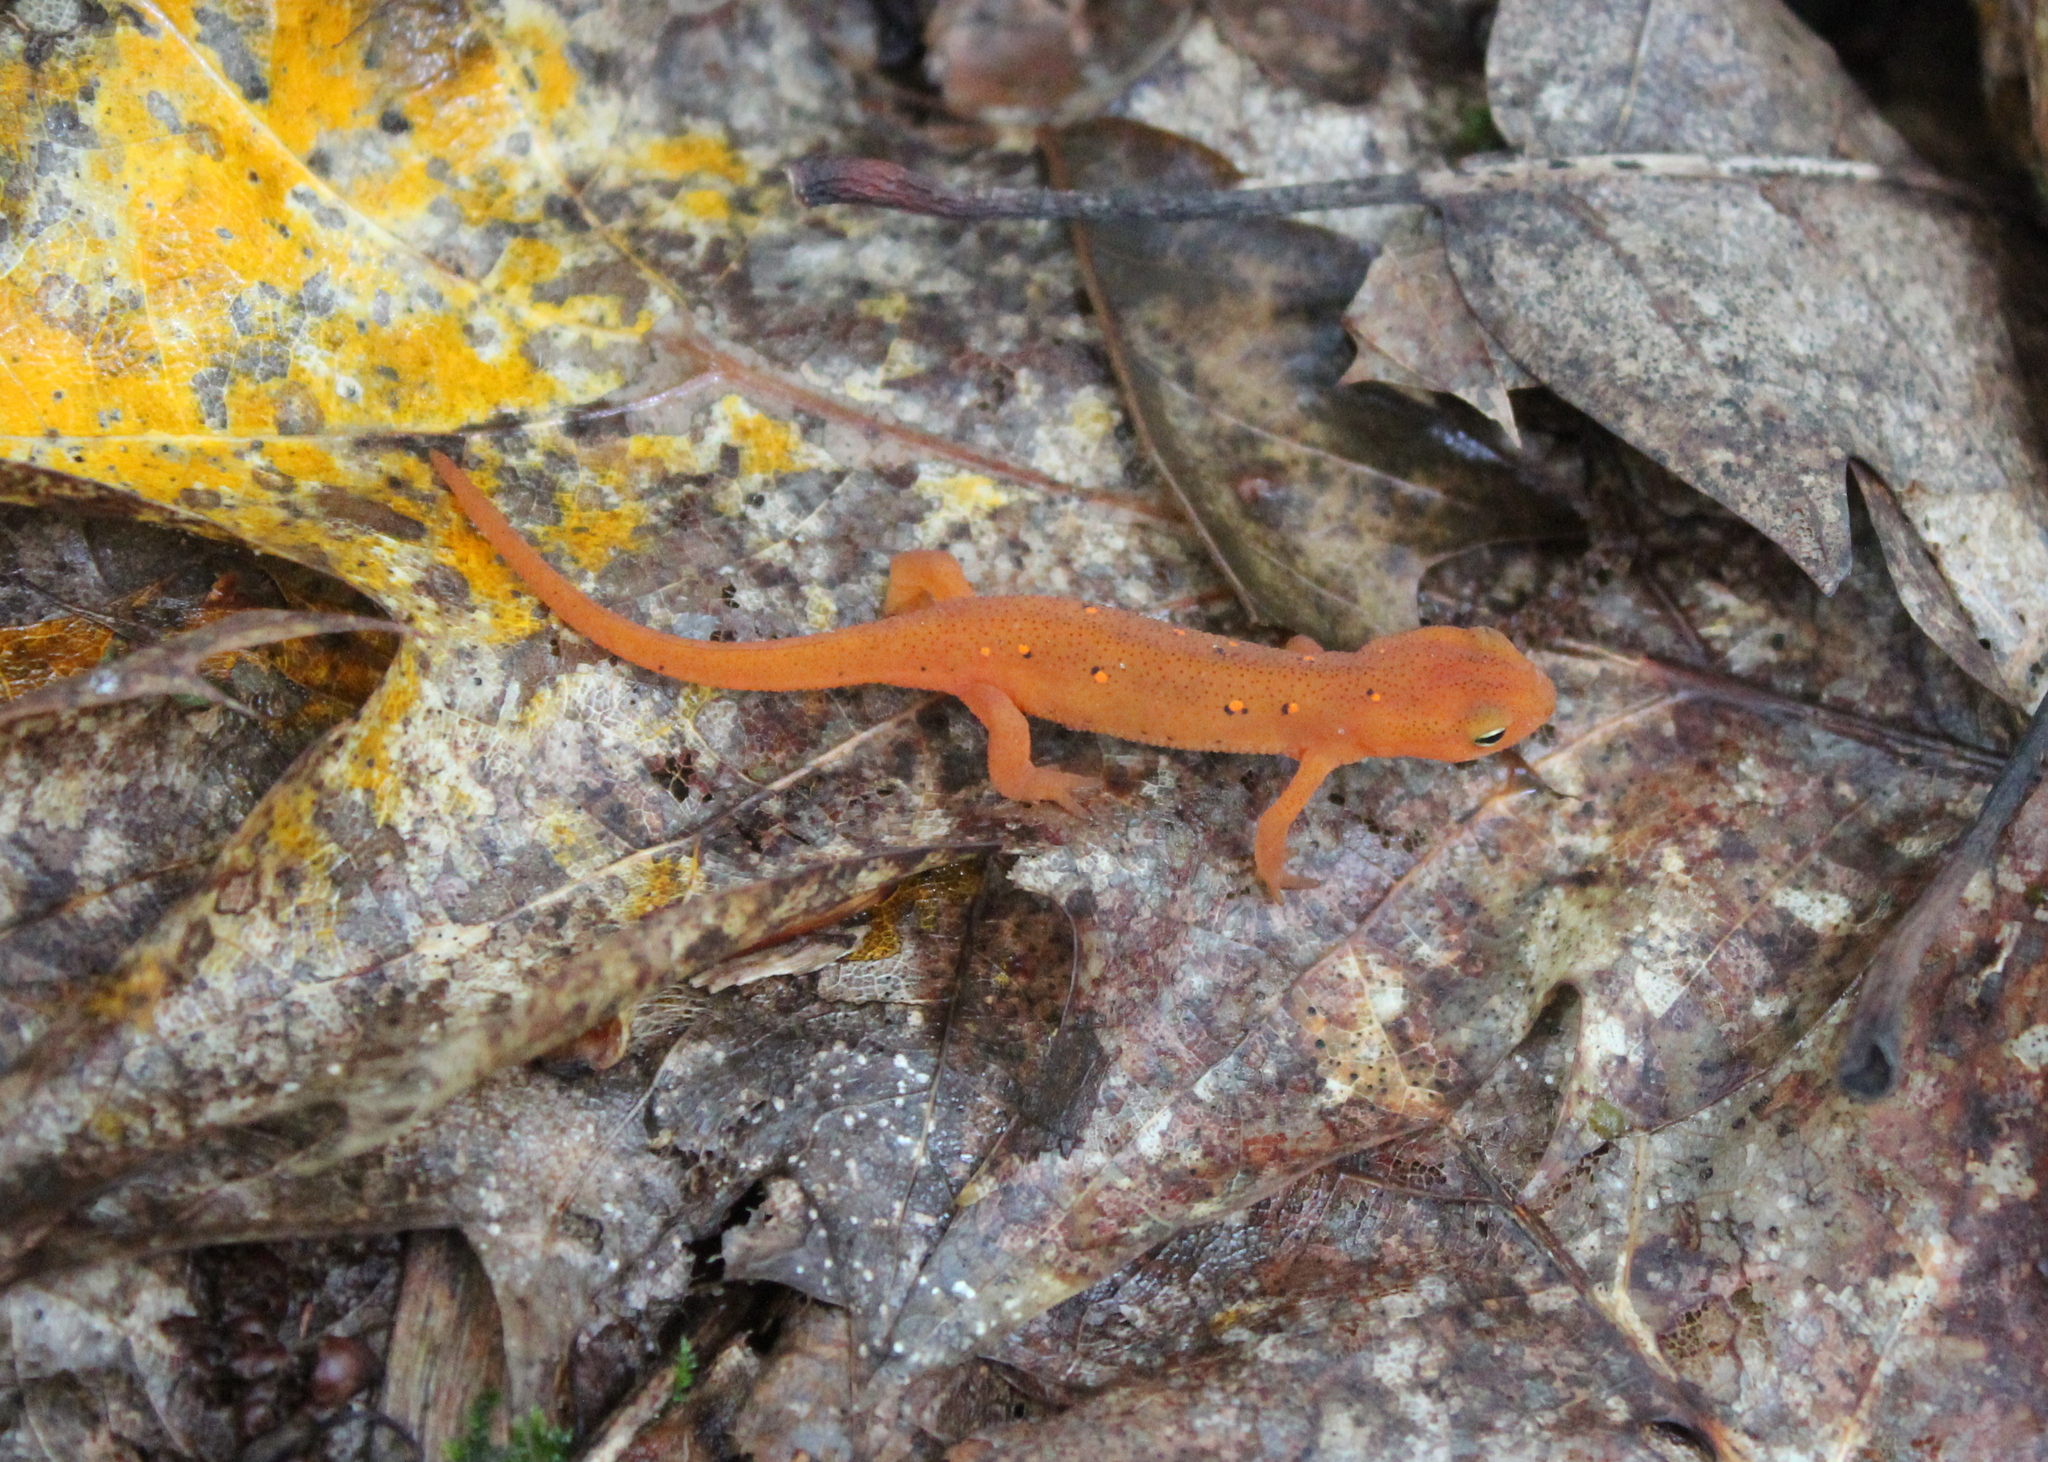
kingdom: Animalia
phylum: Chordata
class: Amphibia
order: Caudata
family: Salamandridae
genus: Notophthalmus
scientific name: Notophthalmus viridescens
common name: Eastern newt
